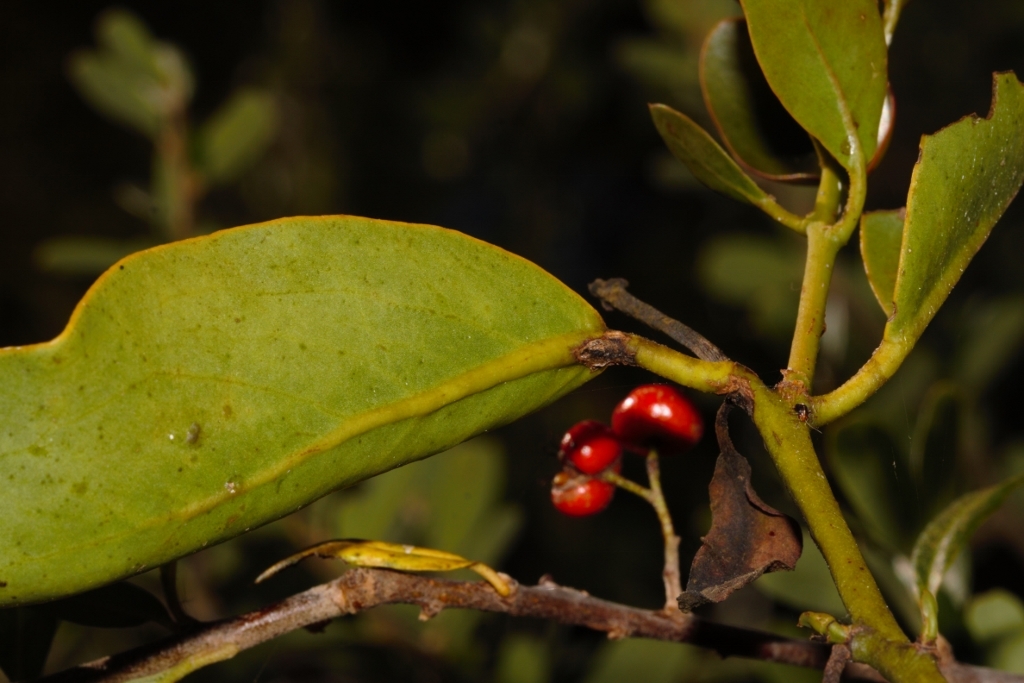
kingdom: Plantae
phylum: Tracheophyta
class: Magnoliopsida
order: Santalales
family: Loranthaceae
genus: Globimetula
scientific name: Globimetula mweroensis
